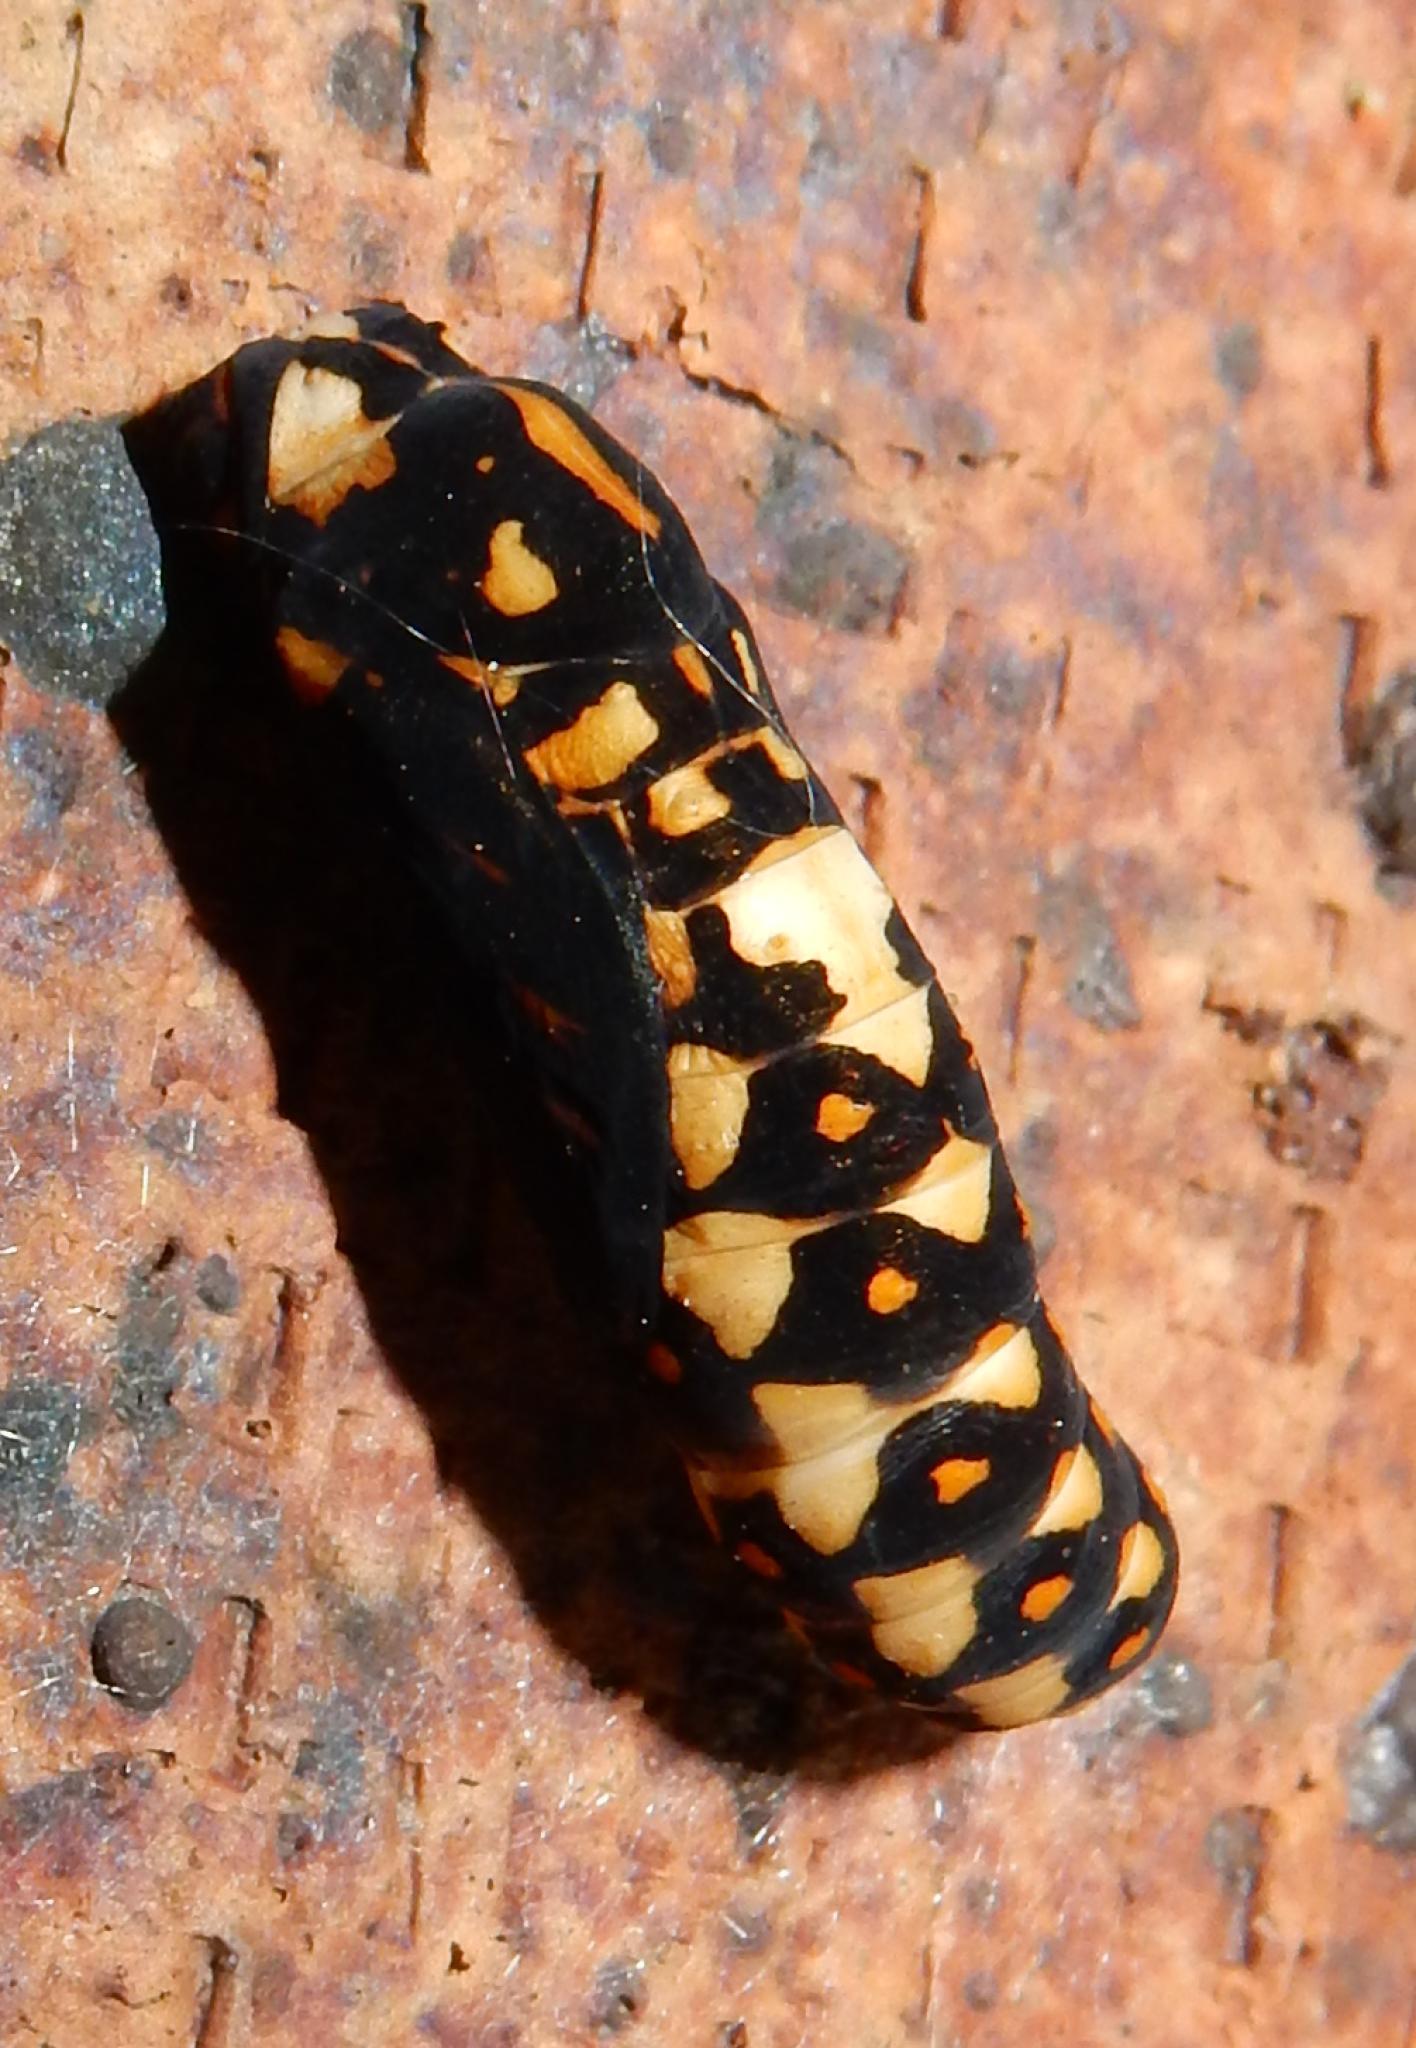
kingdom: Animalia
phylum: Arthropoda
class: Insecta
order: Lepidoptera
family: Nymphalidae
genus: Acraea
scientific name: Acraea horta
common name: Garden acraea
